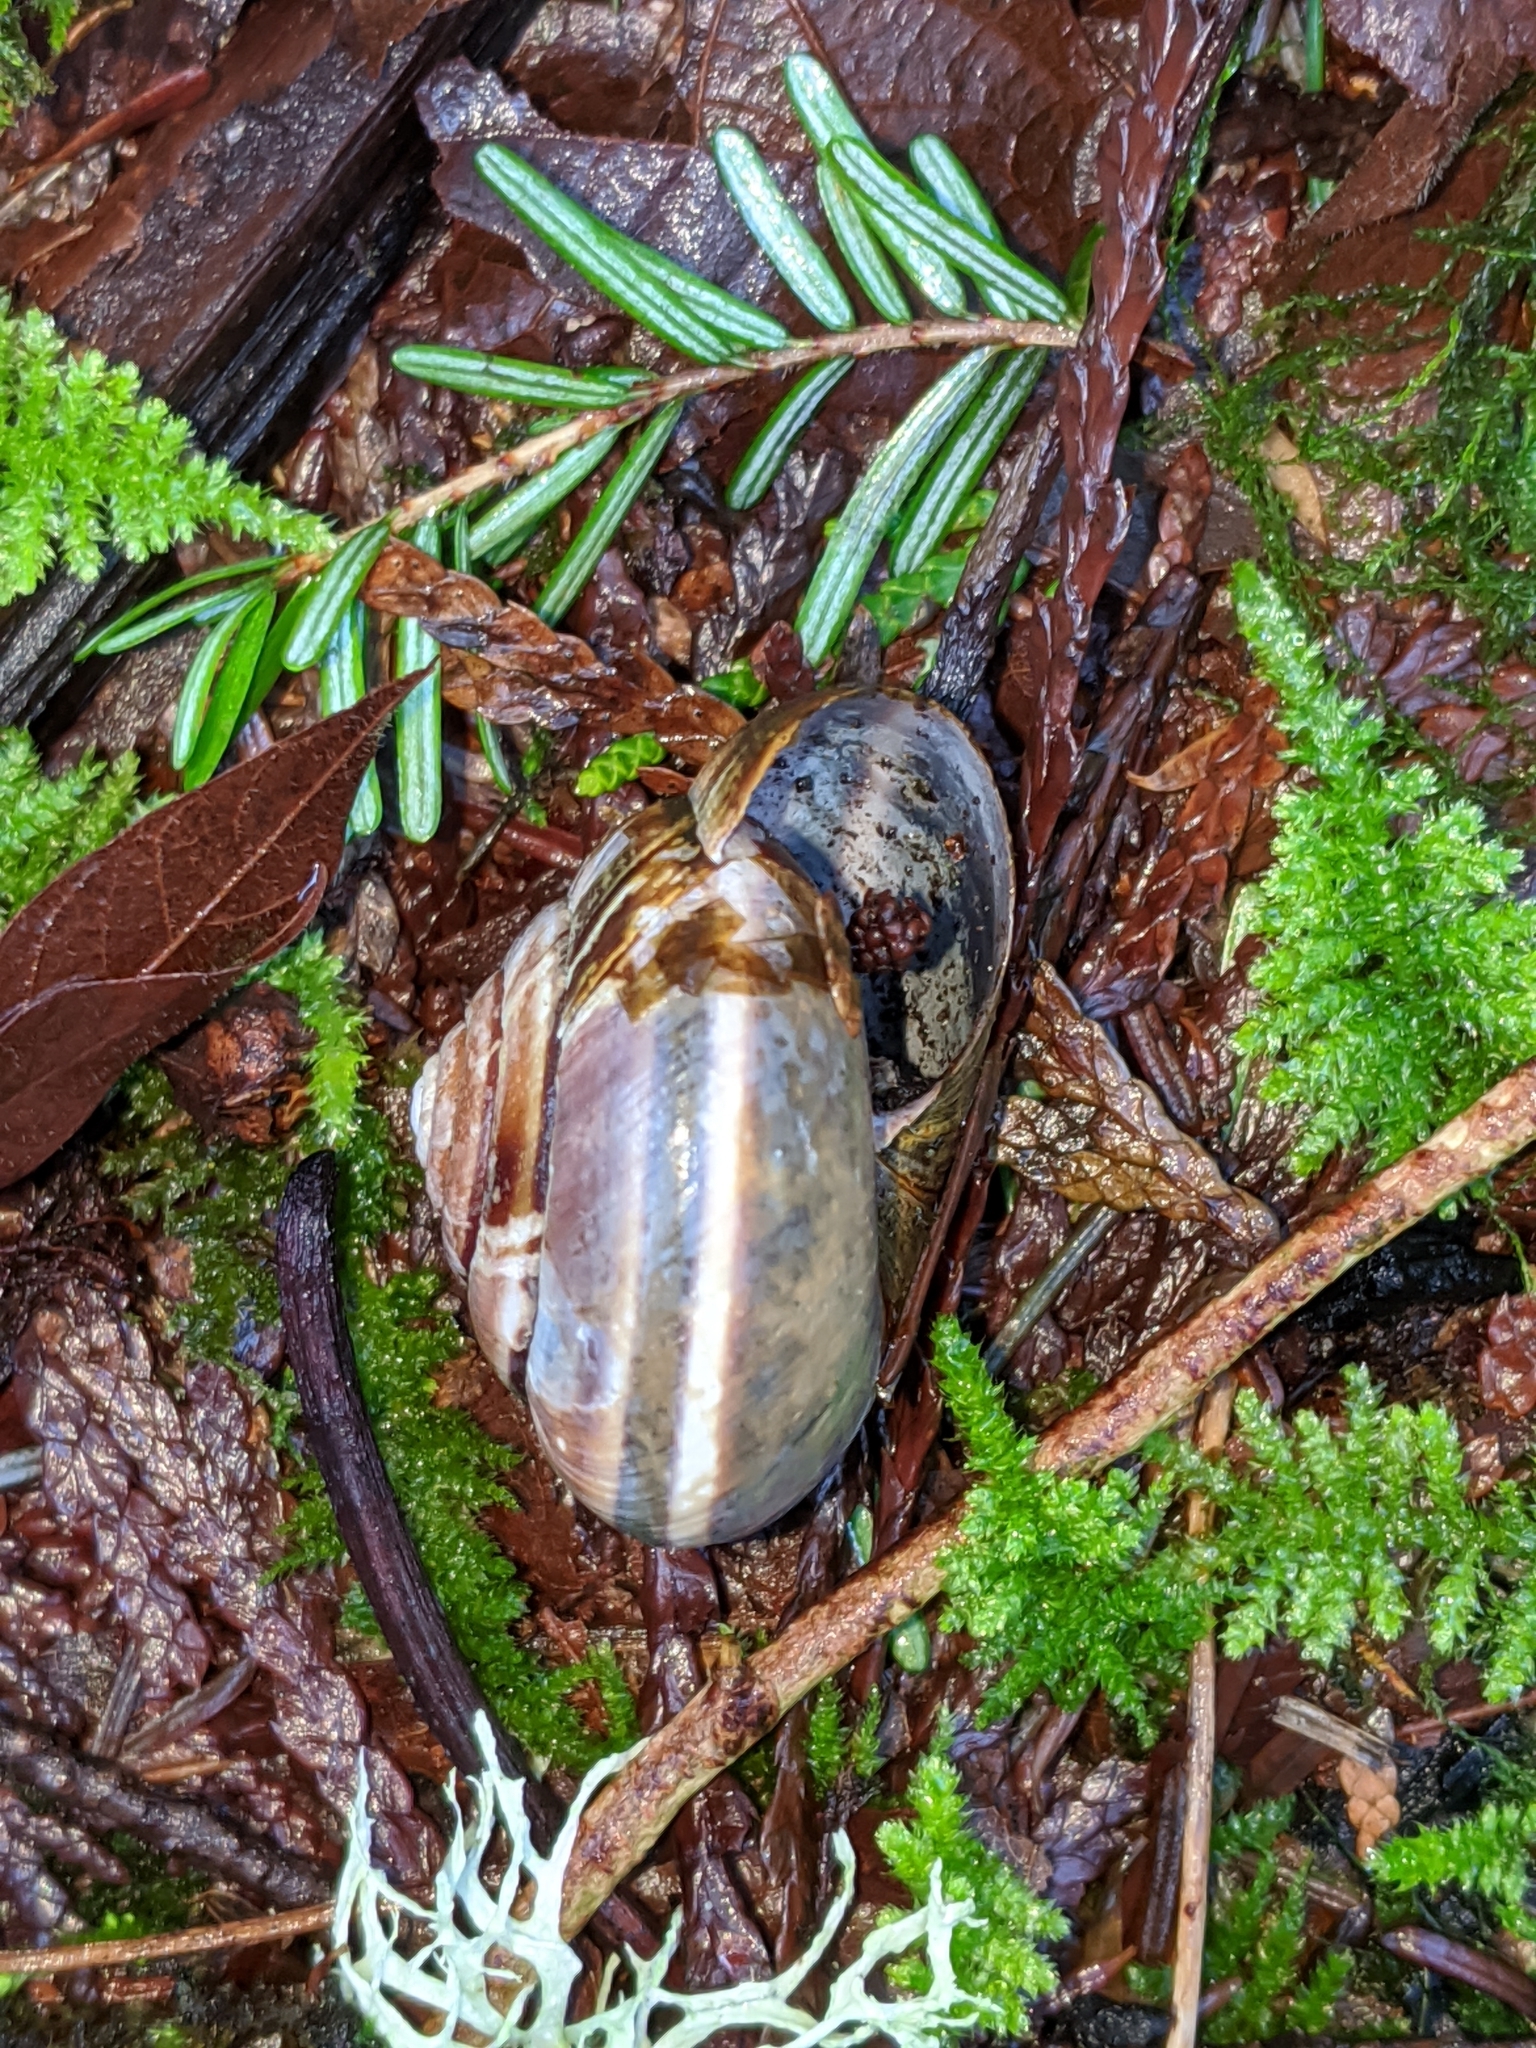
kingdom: Animalia
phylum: Mollusca
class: Gastropoda
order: Stylommatophora
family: Xanthonychidae
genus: Monadenia
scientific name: Monadenia fidelis
